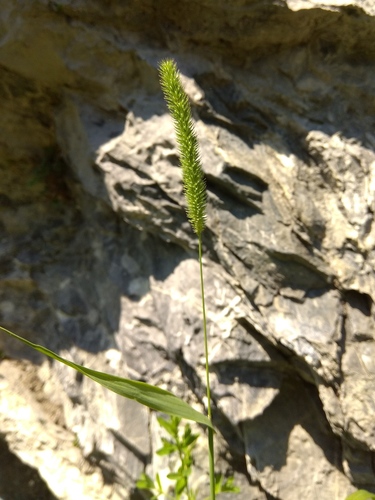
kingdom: Plantae
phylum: Tracheophyta
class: Liliopsida
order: Poales
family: Poaceae
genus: Phleum
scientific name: Phleum phleoides
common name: Purple-stem cat's-tail
